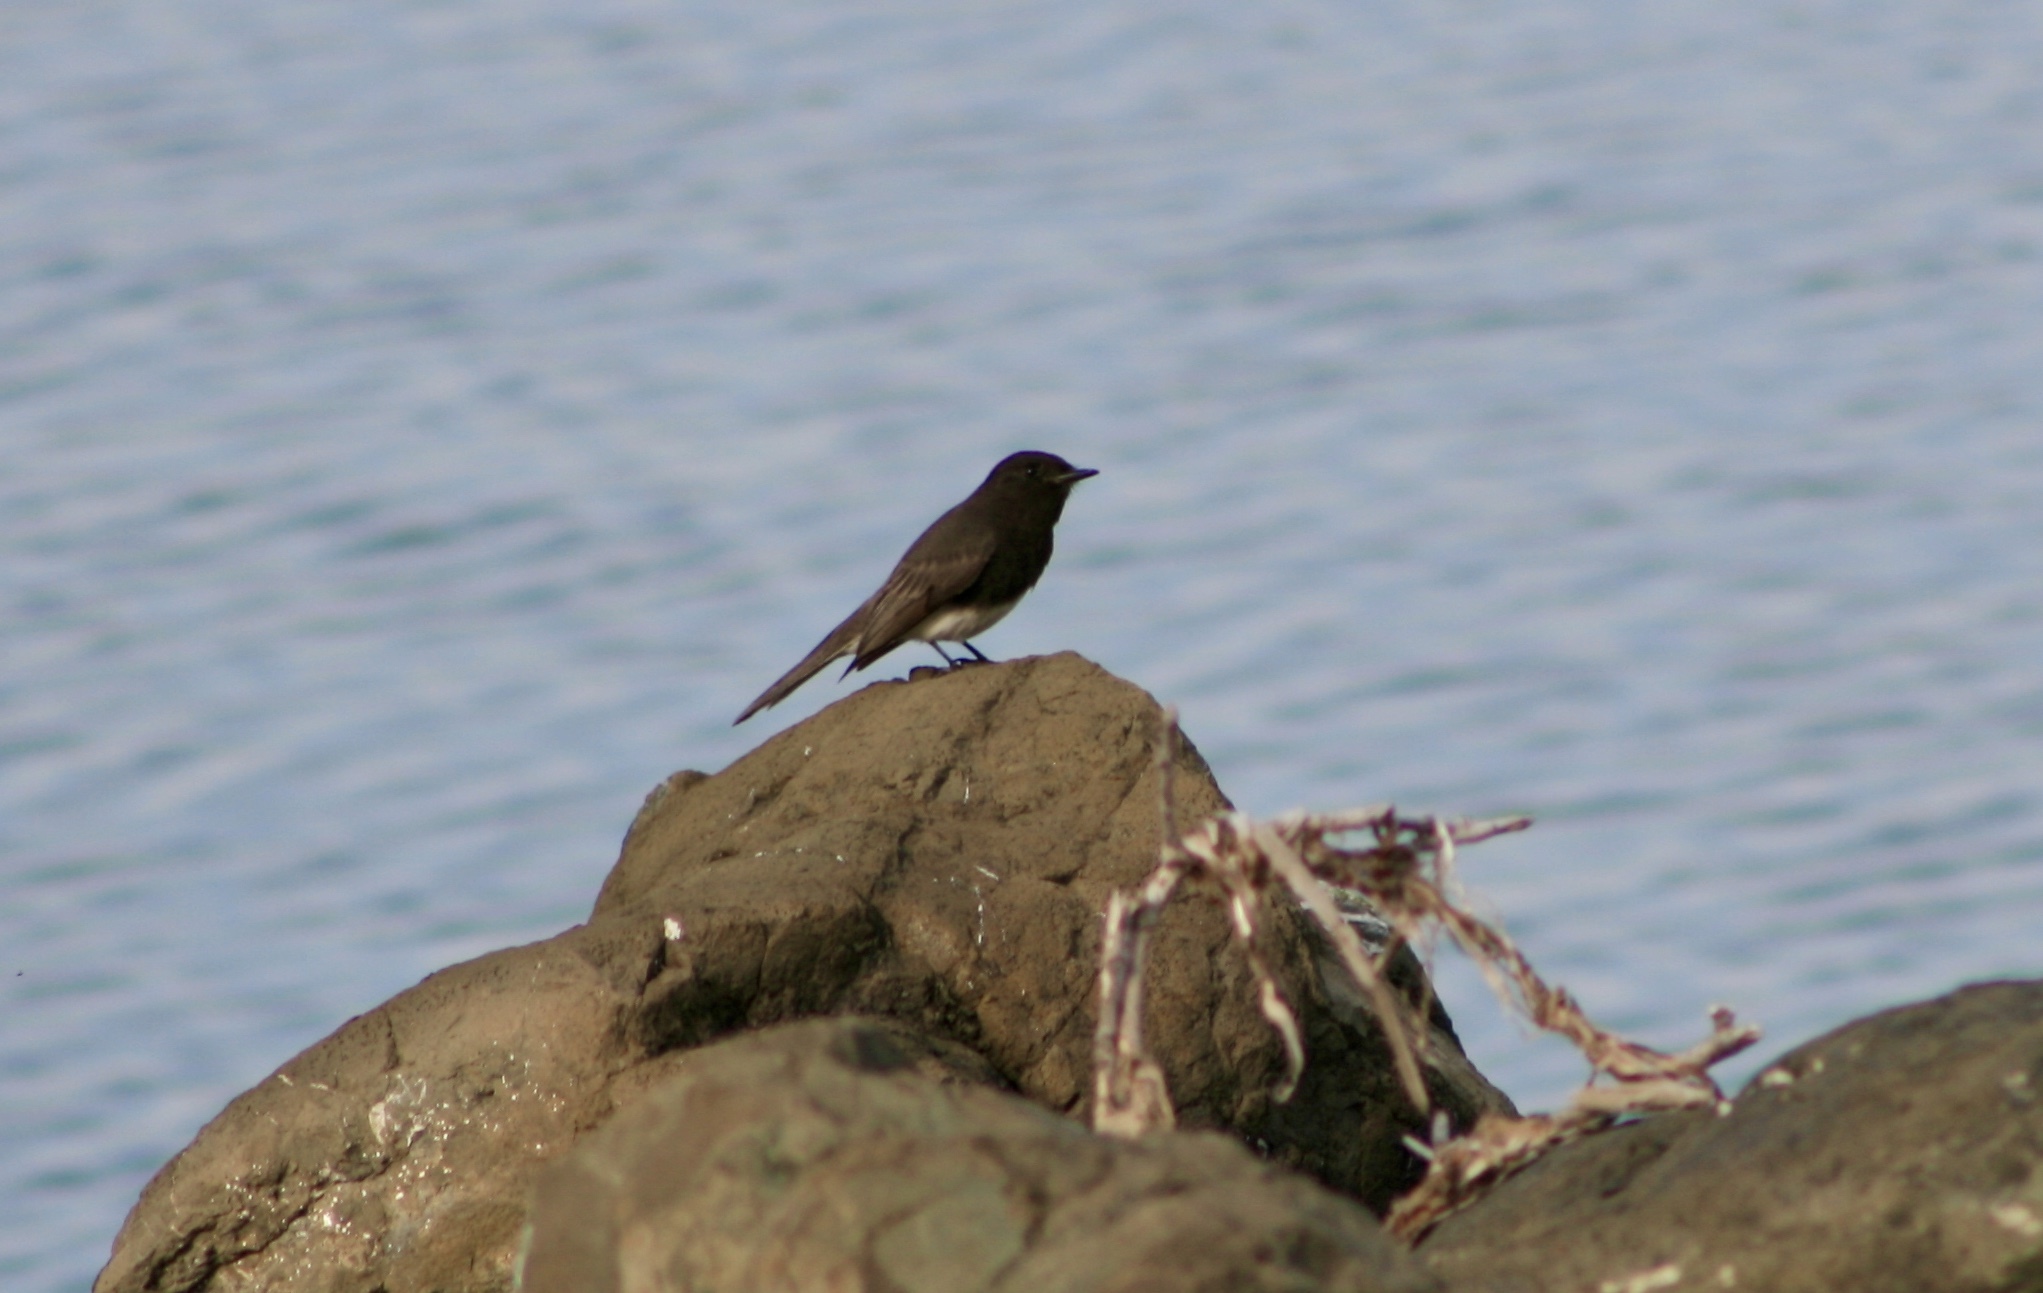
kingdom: Animalia
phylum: Chordata
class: Aves
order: Passeriformes
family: Tyrannidae
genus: Sayornis
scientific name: Sayornis nigricans
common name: Black phoebe
